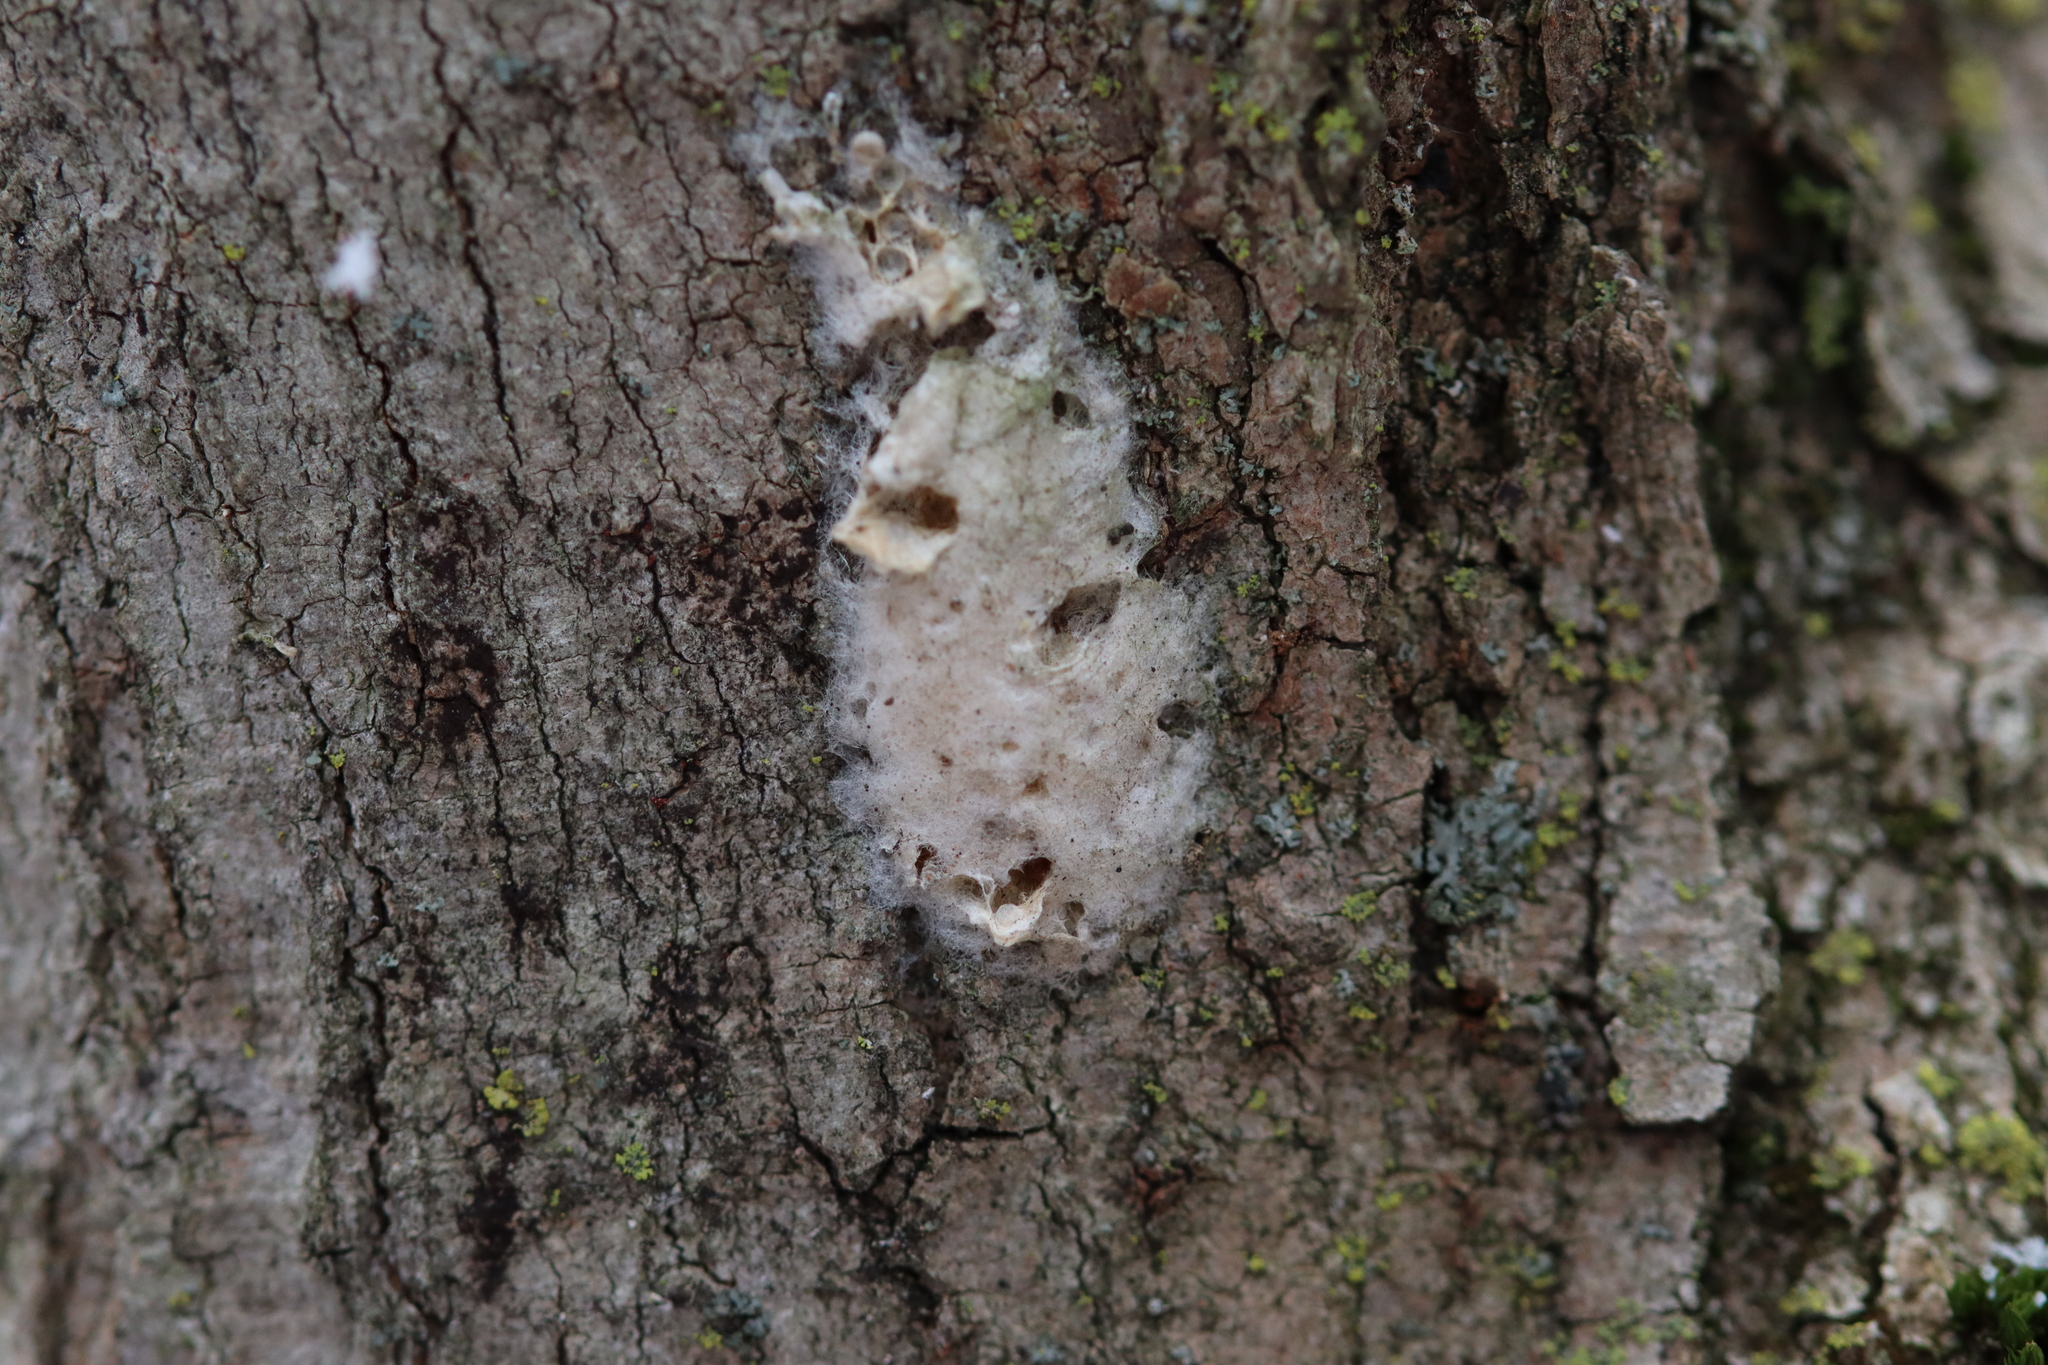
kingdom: Animalia
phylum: Arthropoda
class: Insecta
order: Lepidoptera
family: Erebidae
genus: Lymantria
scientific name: Lymantria dispar
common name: Gypsy moth
